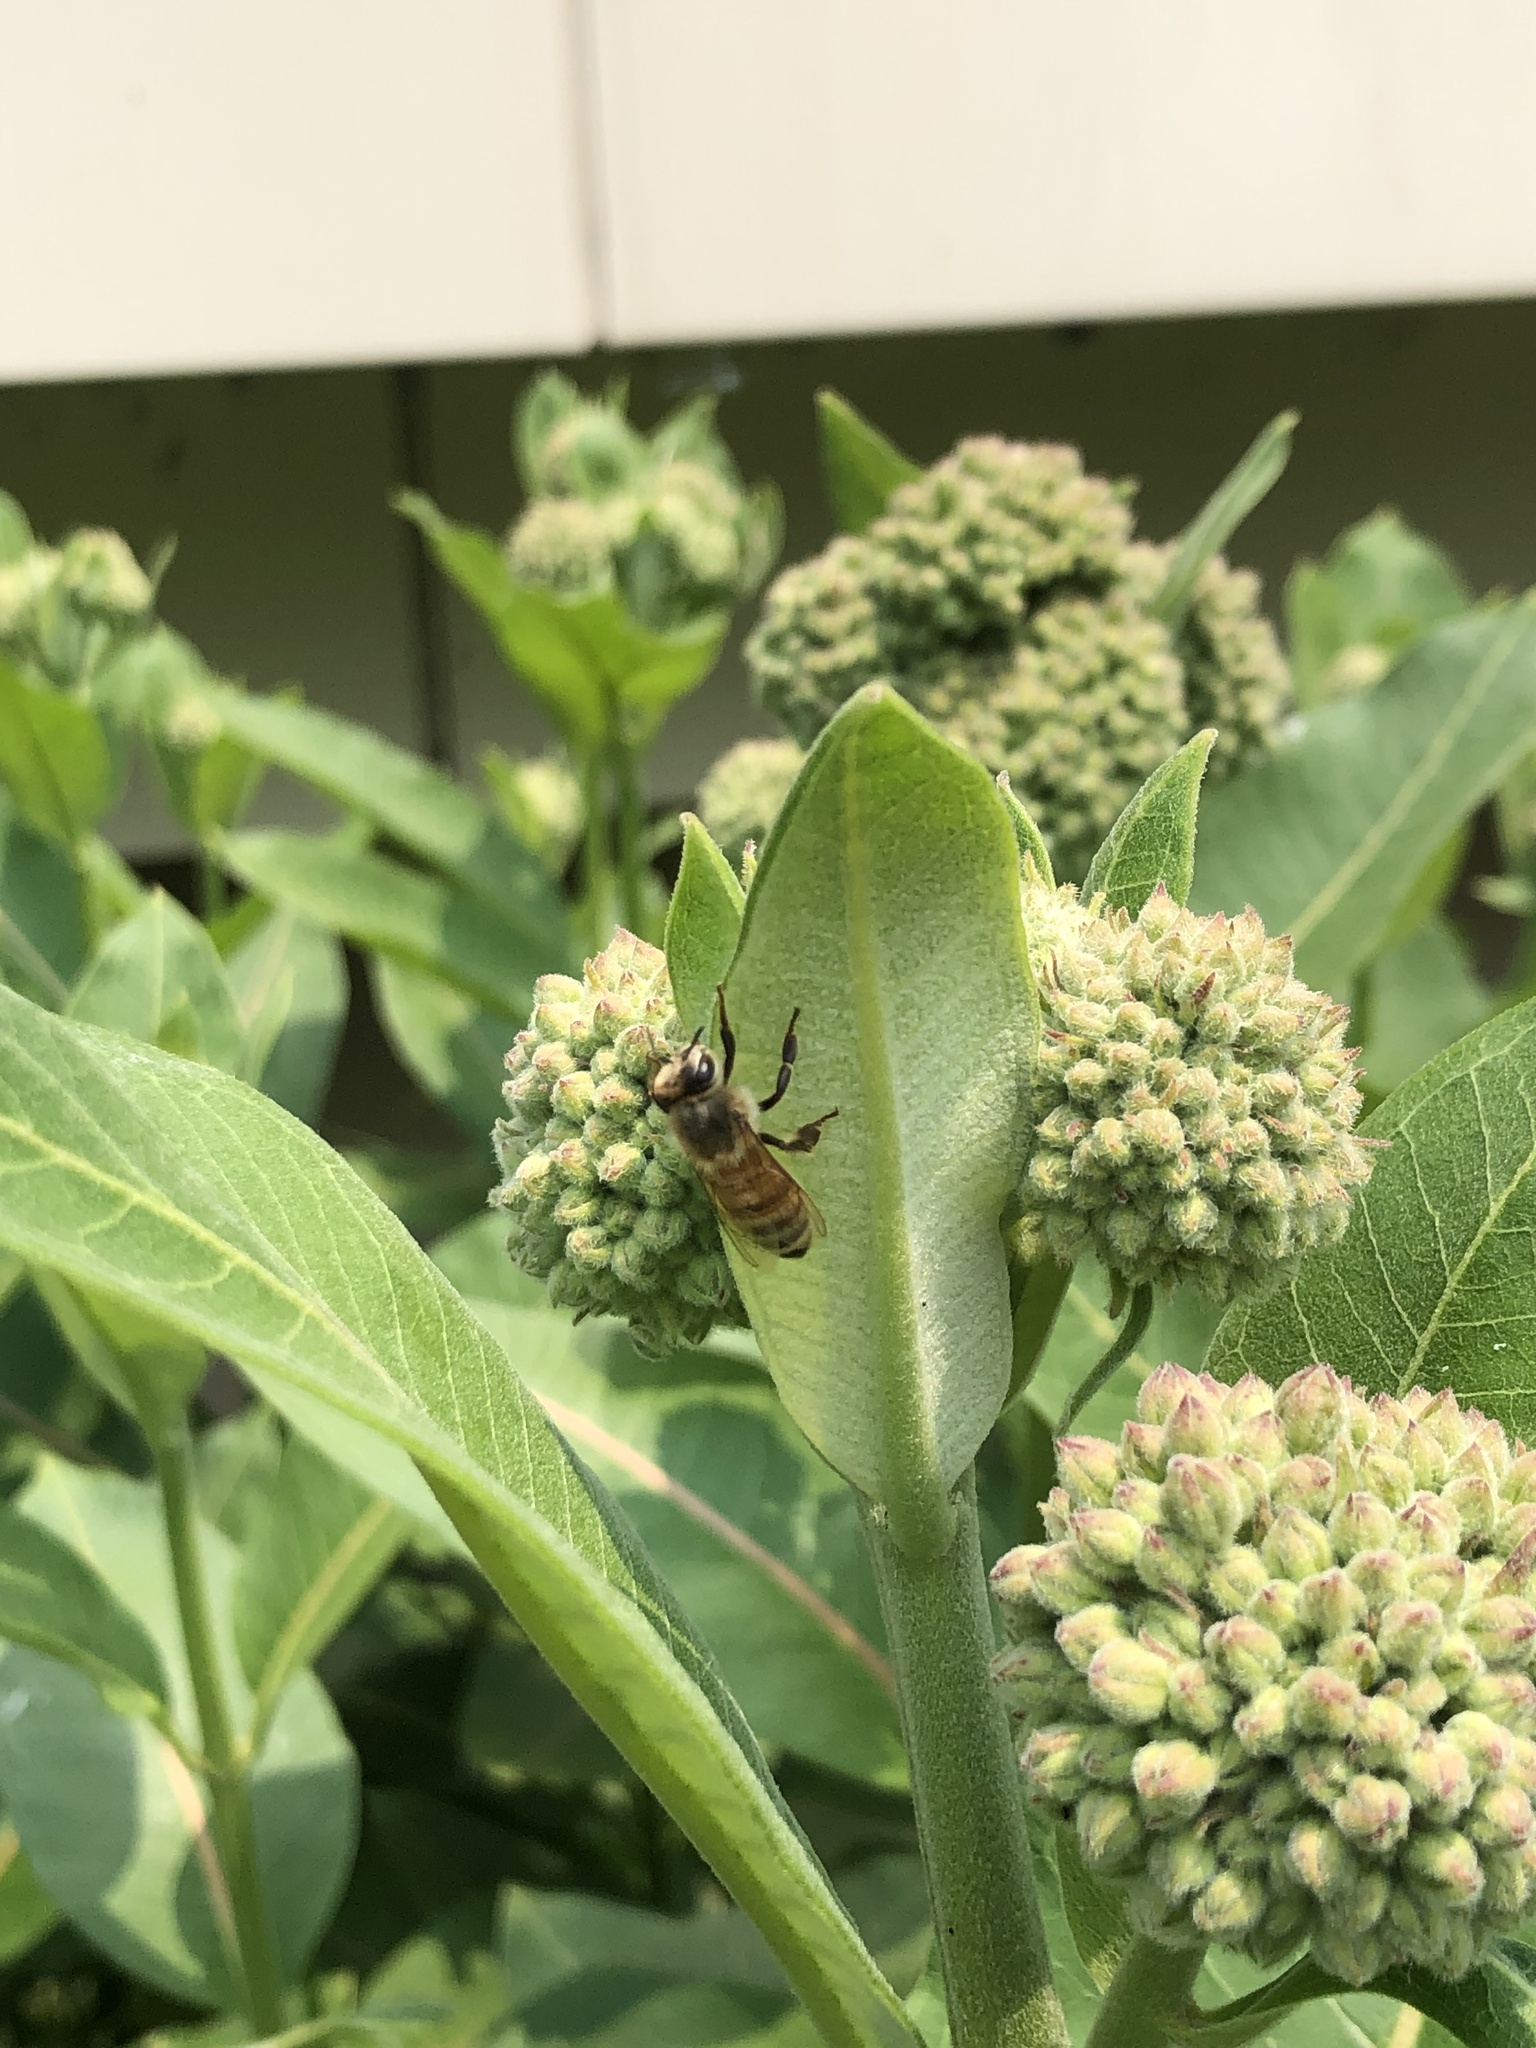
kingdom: Animalia
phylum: Arthropoda
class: Insecta
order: Hymenoptera
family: Apidae
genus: Apis
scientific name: Apis mellifera
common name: Honey bee
